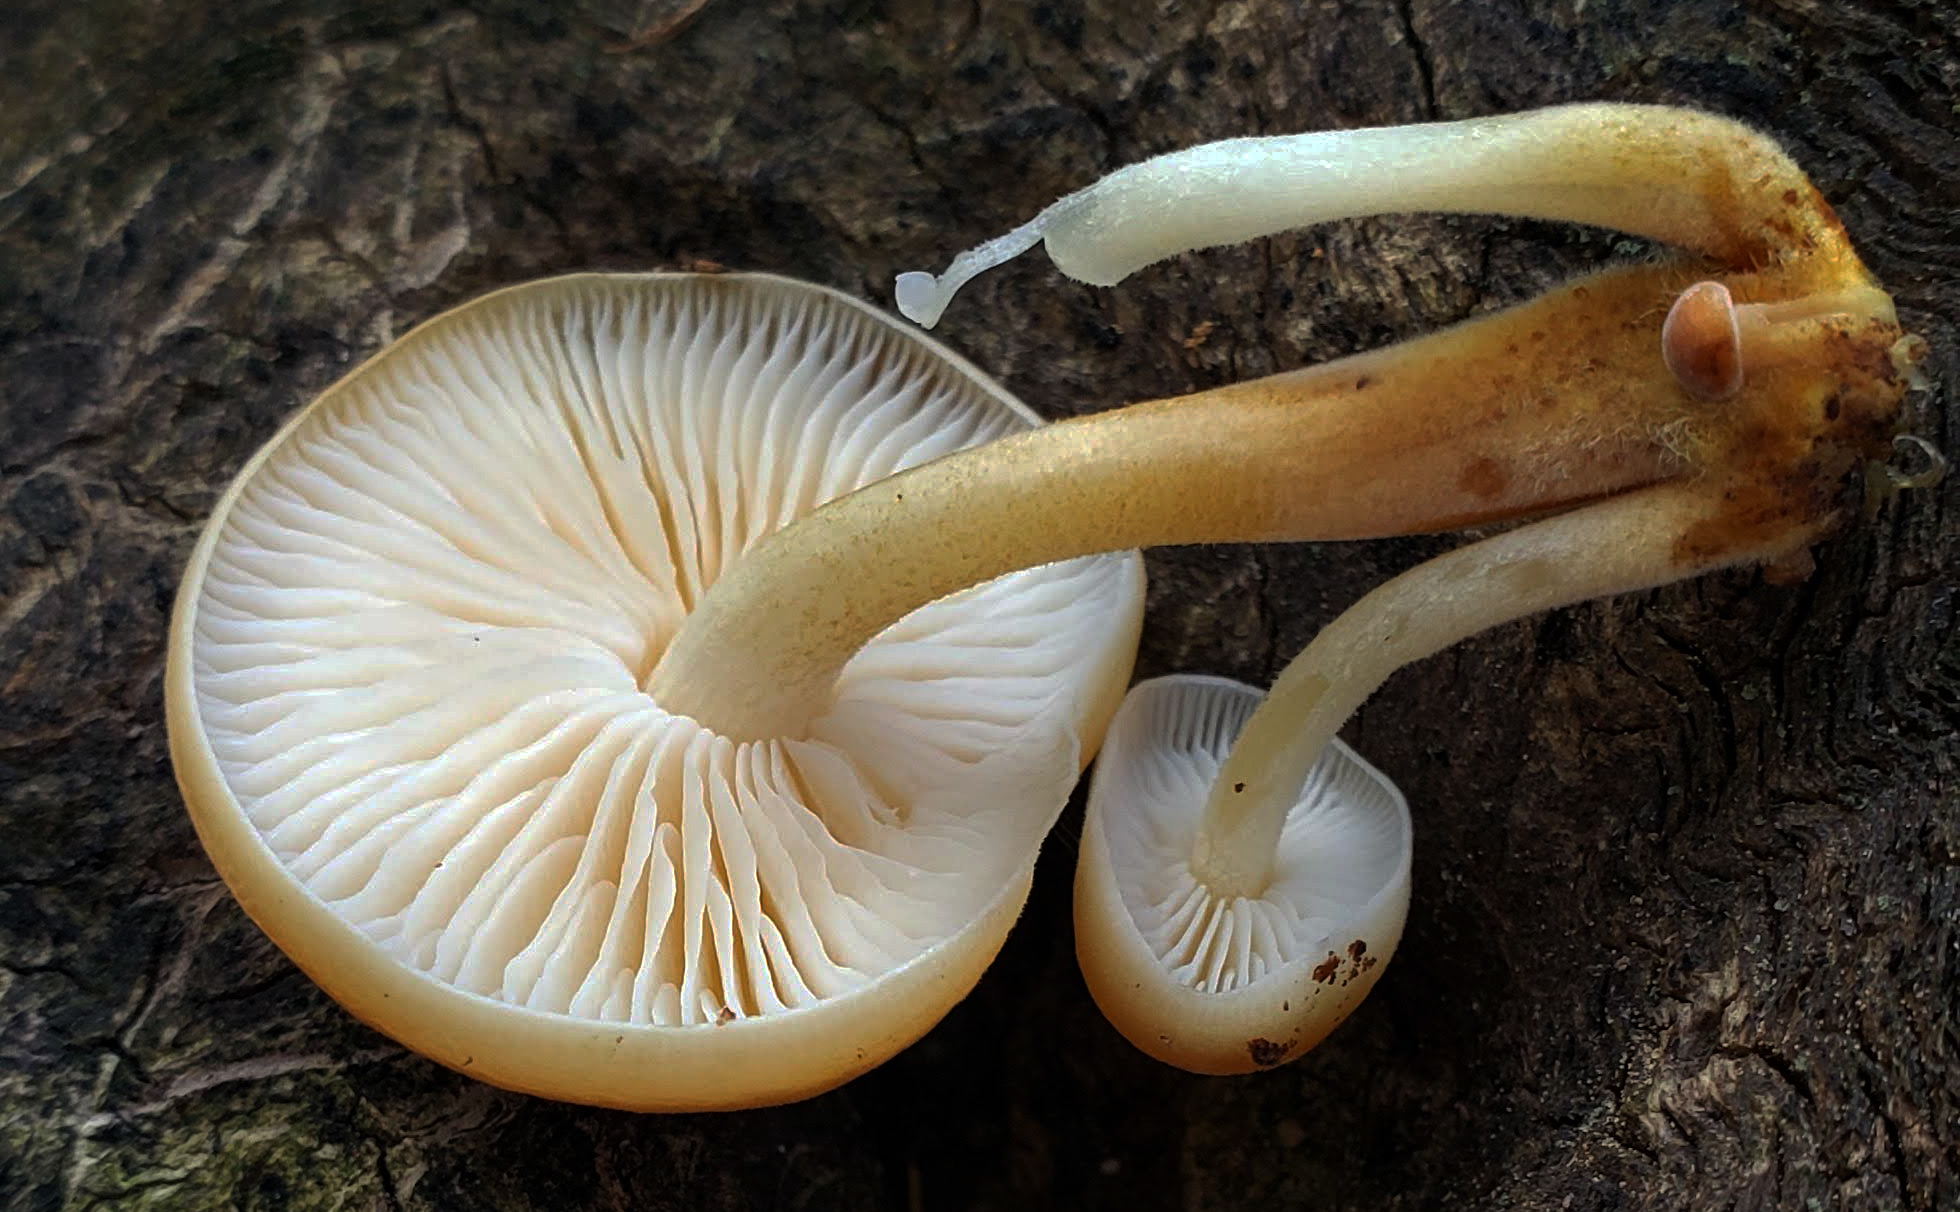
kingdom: Fungi
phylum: Basidiomycota
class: Agaricomycetes
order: Agaricales
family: Physalacriaceae
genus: Flammulina
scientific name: Flammulina velutipes
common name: Velvet shank
